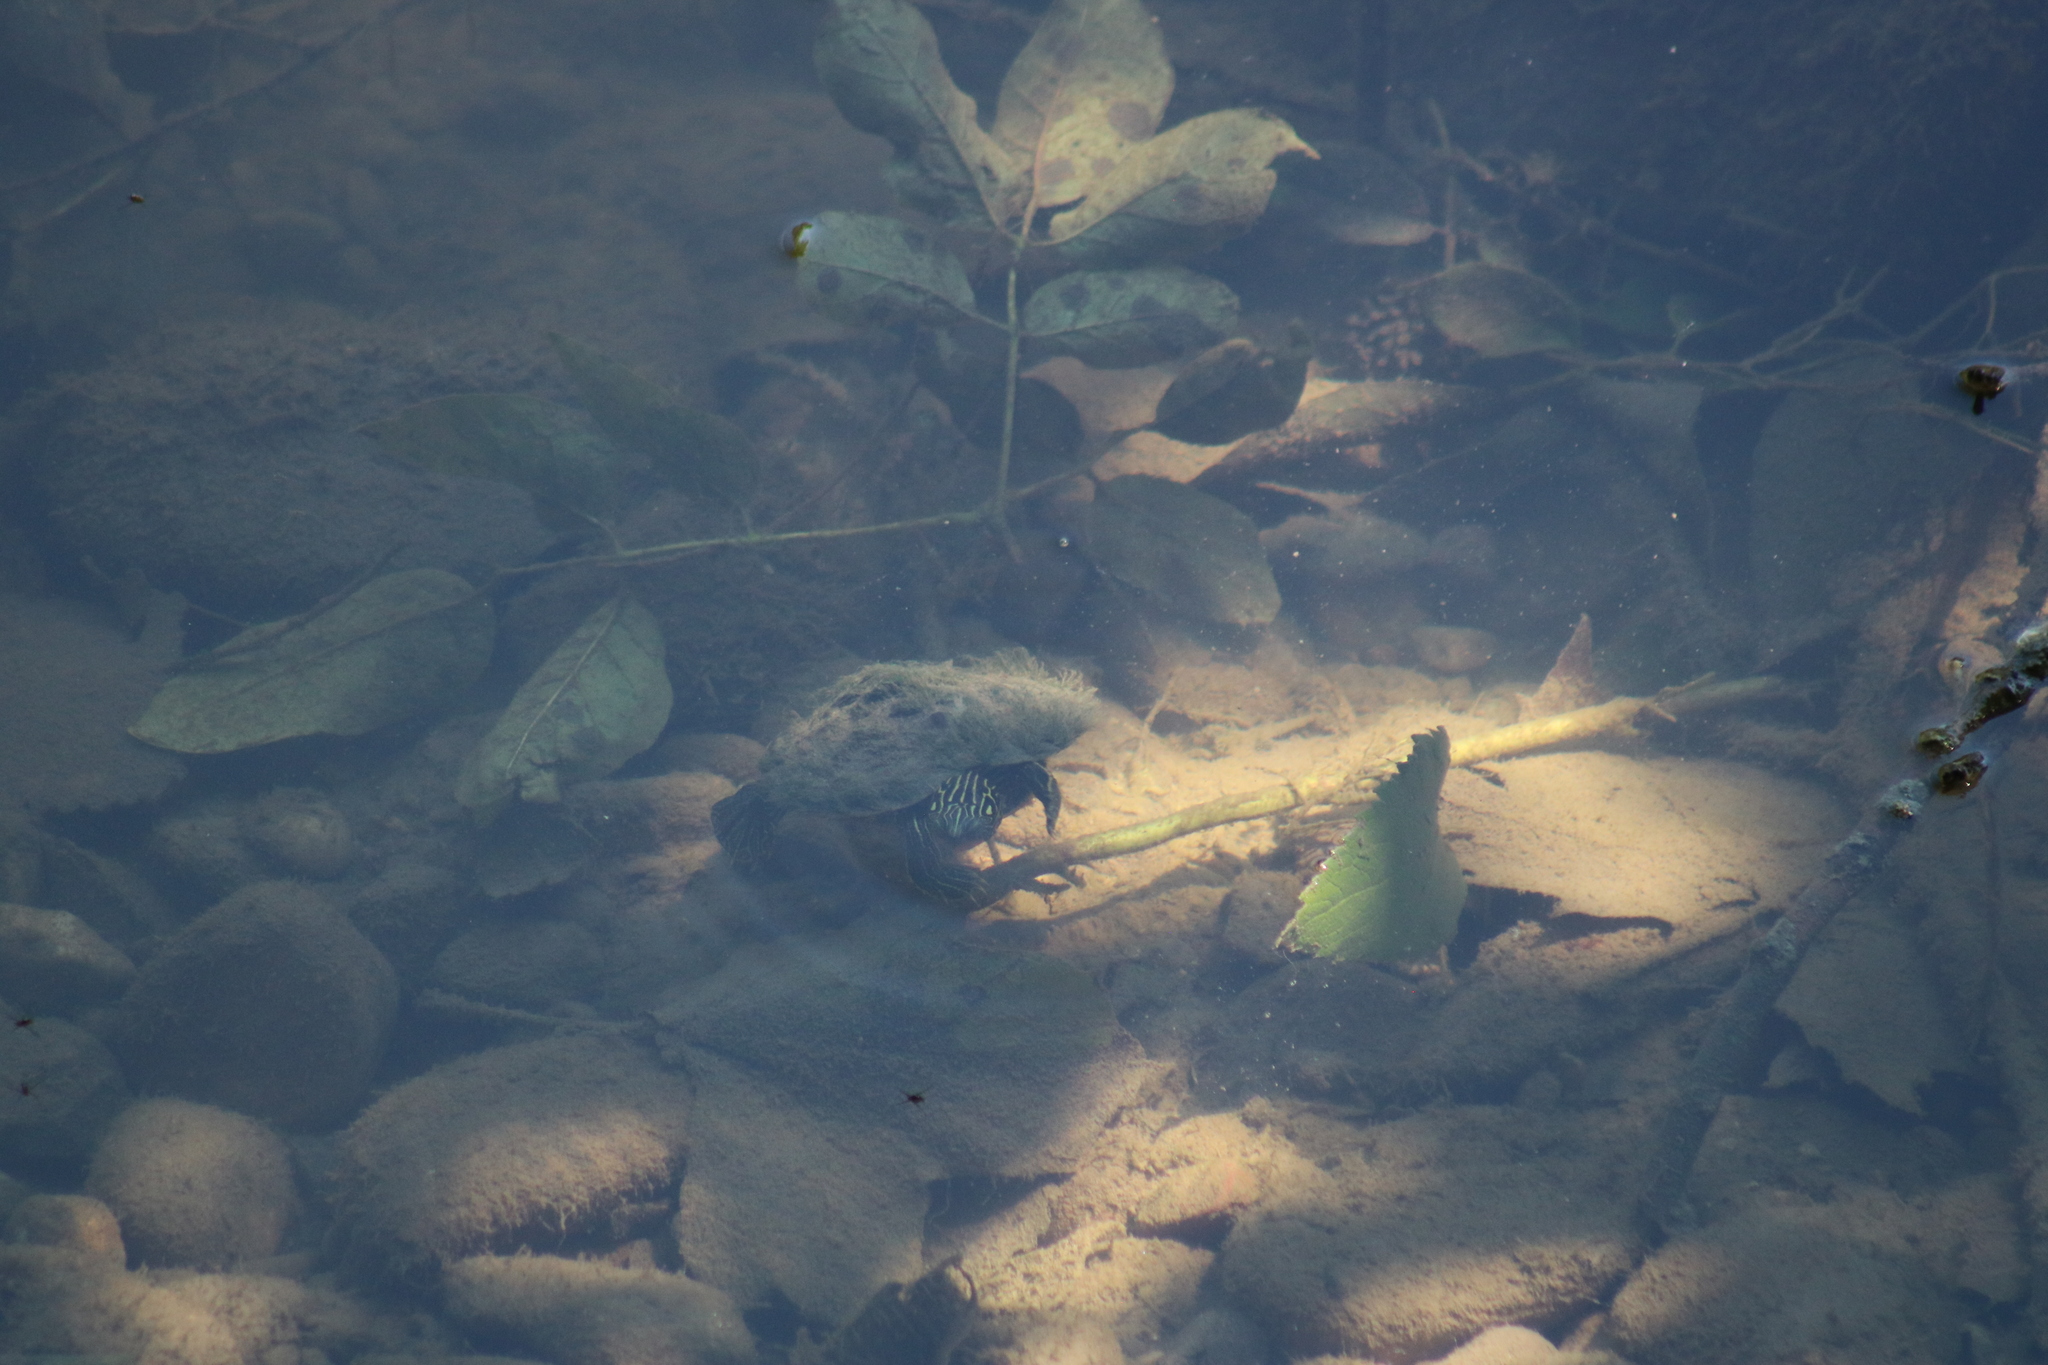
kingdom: Animalia
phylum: Chordata
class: Testudines
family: Emydidae
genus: Graptemys
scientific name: Graptemys geographica
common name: Common map turtle
